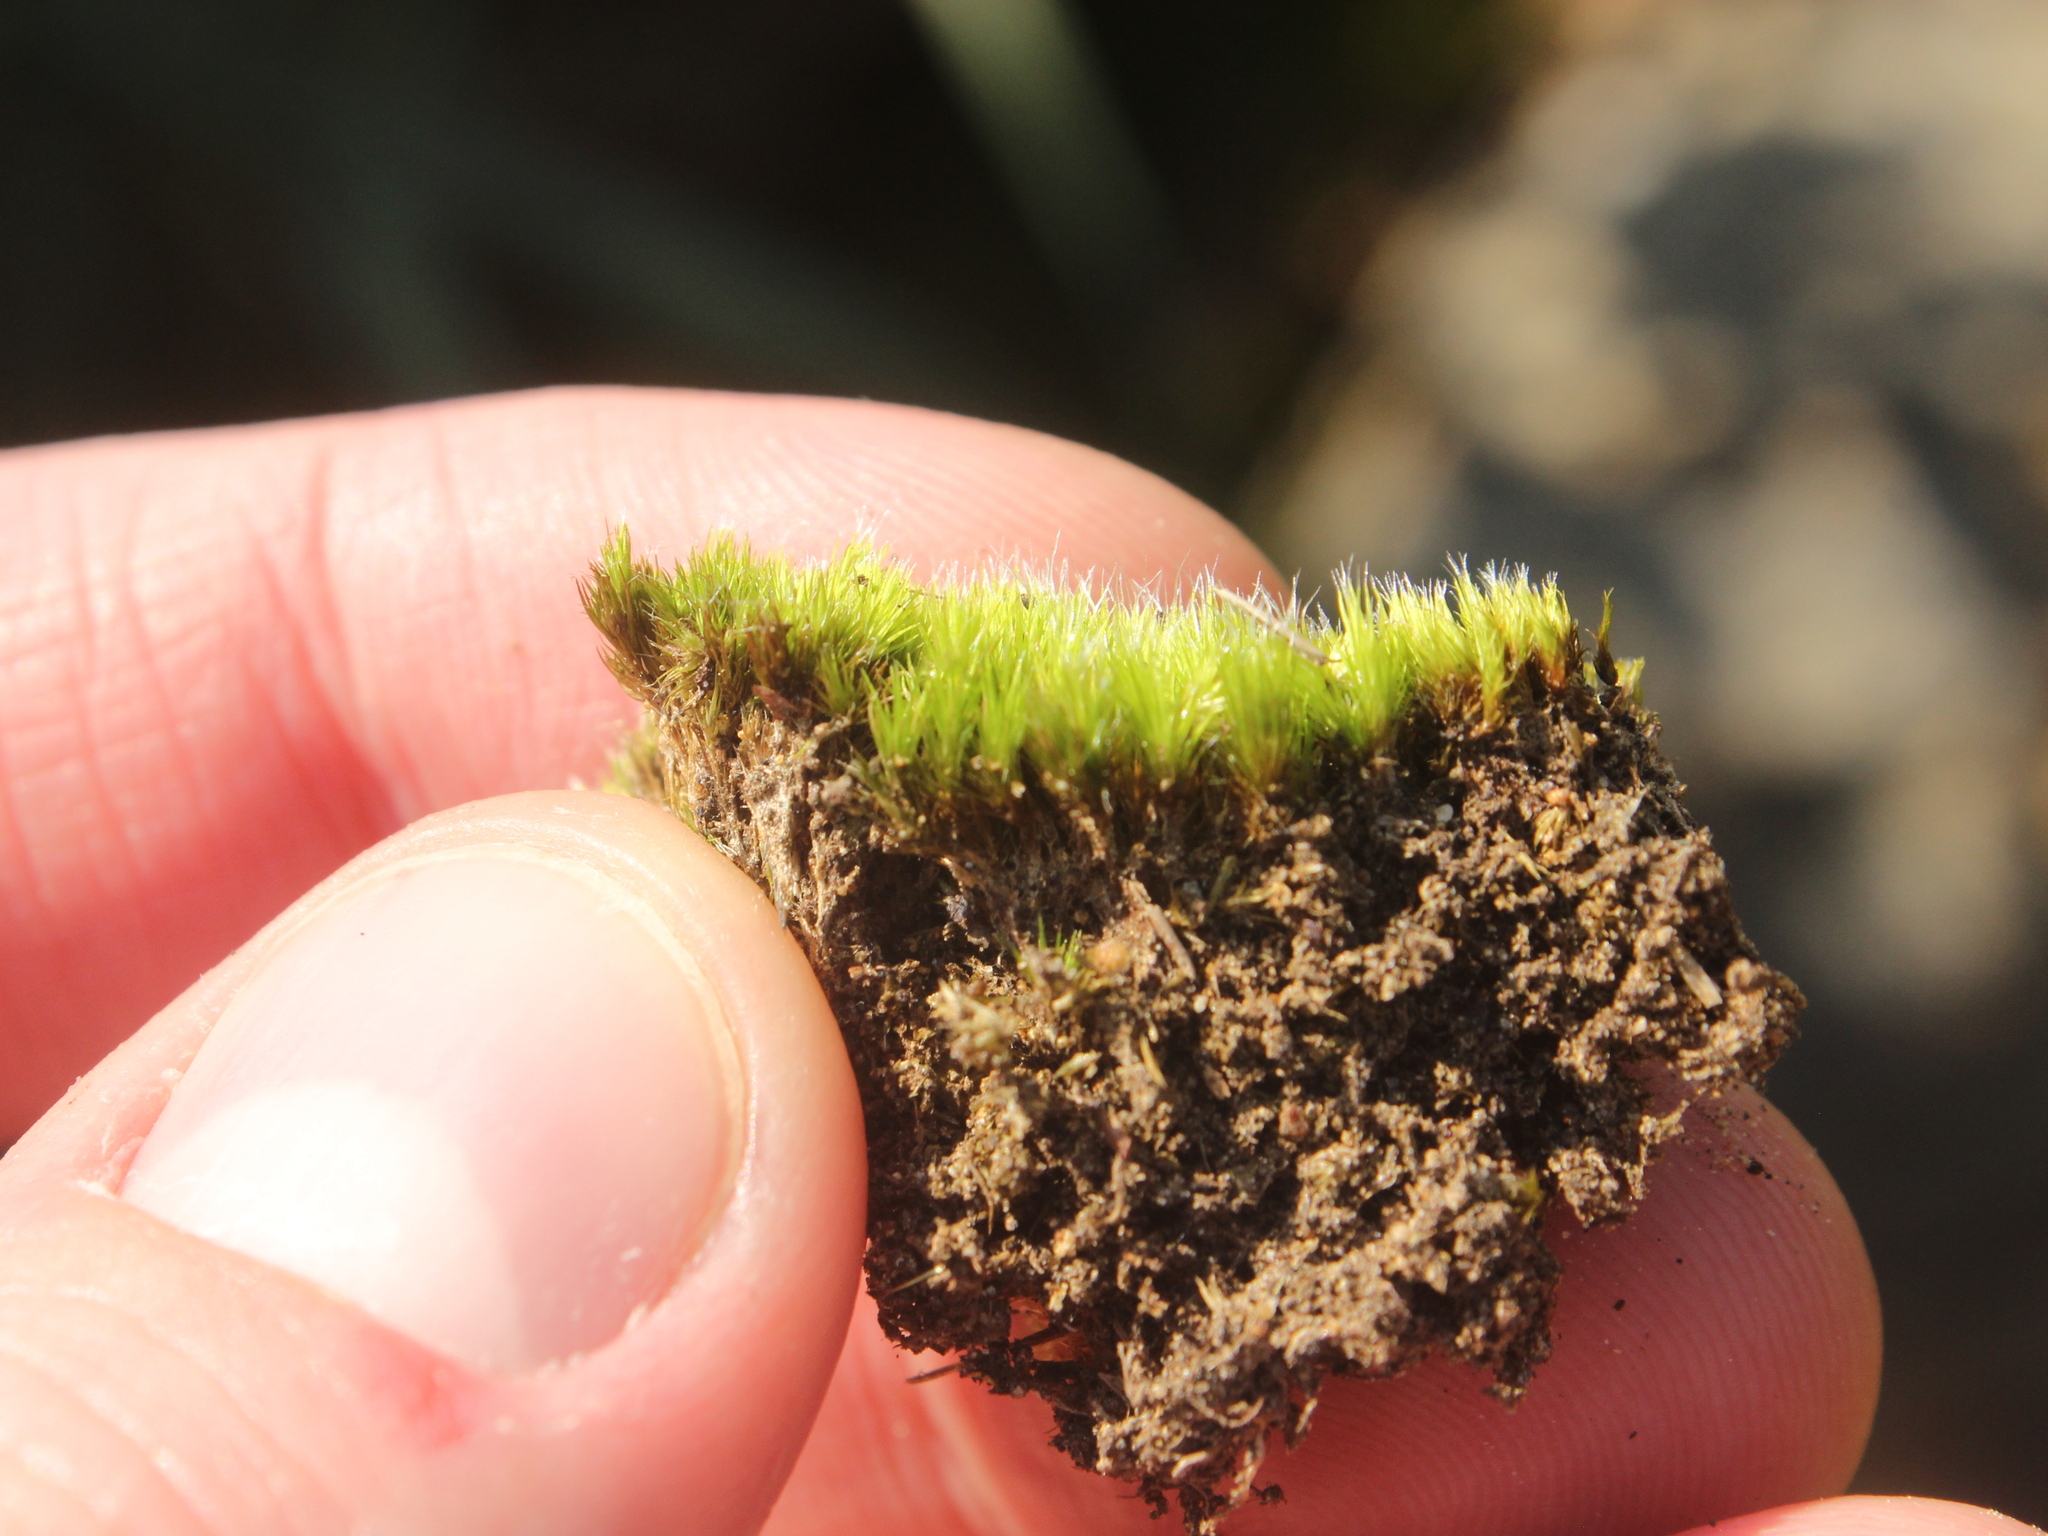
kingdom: Plantae
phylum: Bryophyta
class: Bryopsida
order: Dicranales
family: Leucobryaceae
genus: Campylopus
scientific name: Campylopus introflexus
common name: Heath star moss
